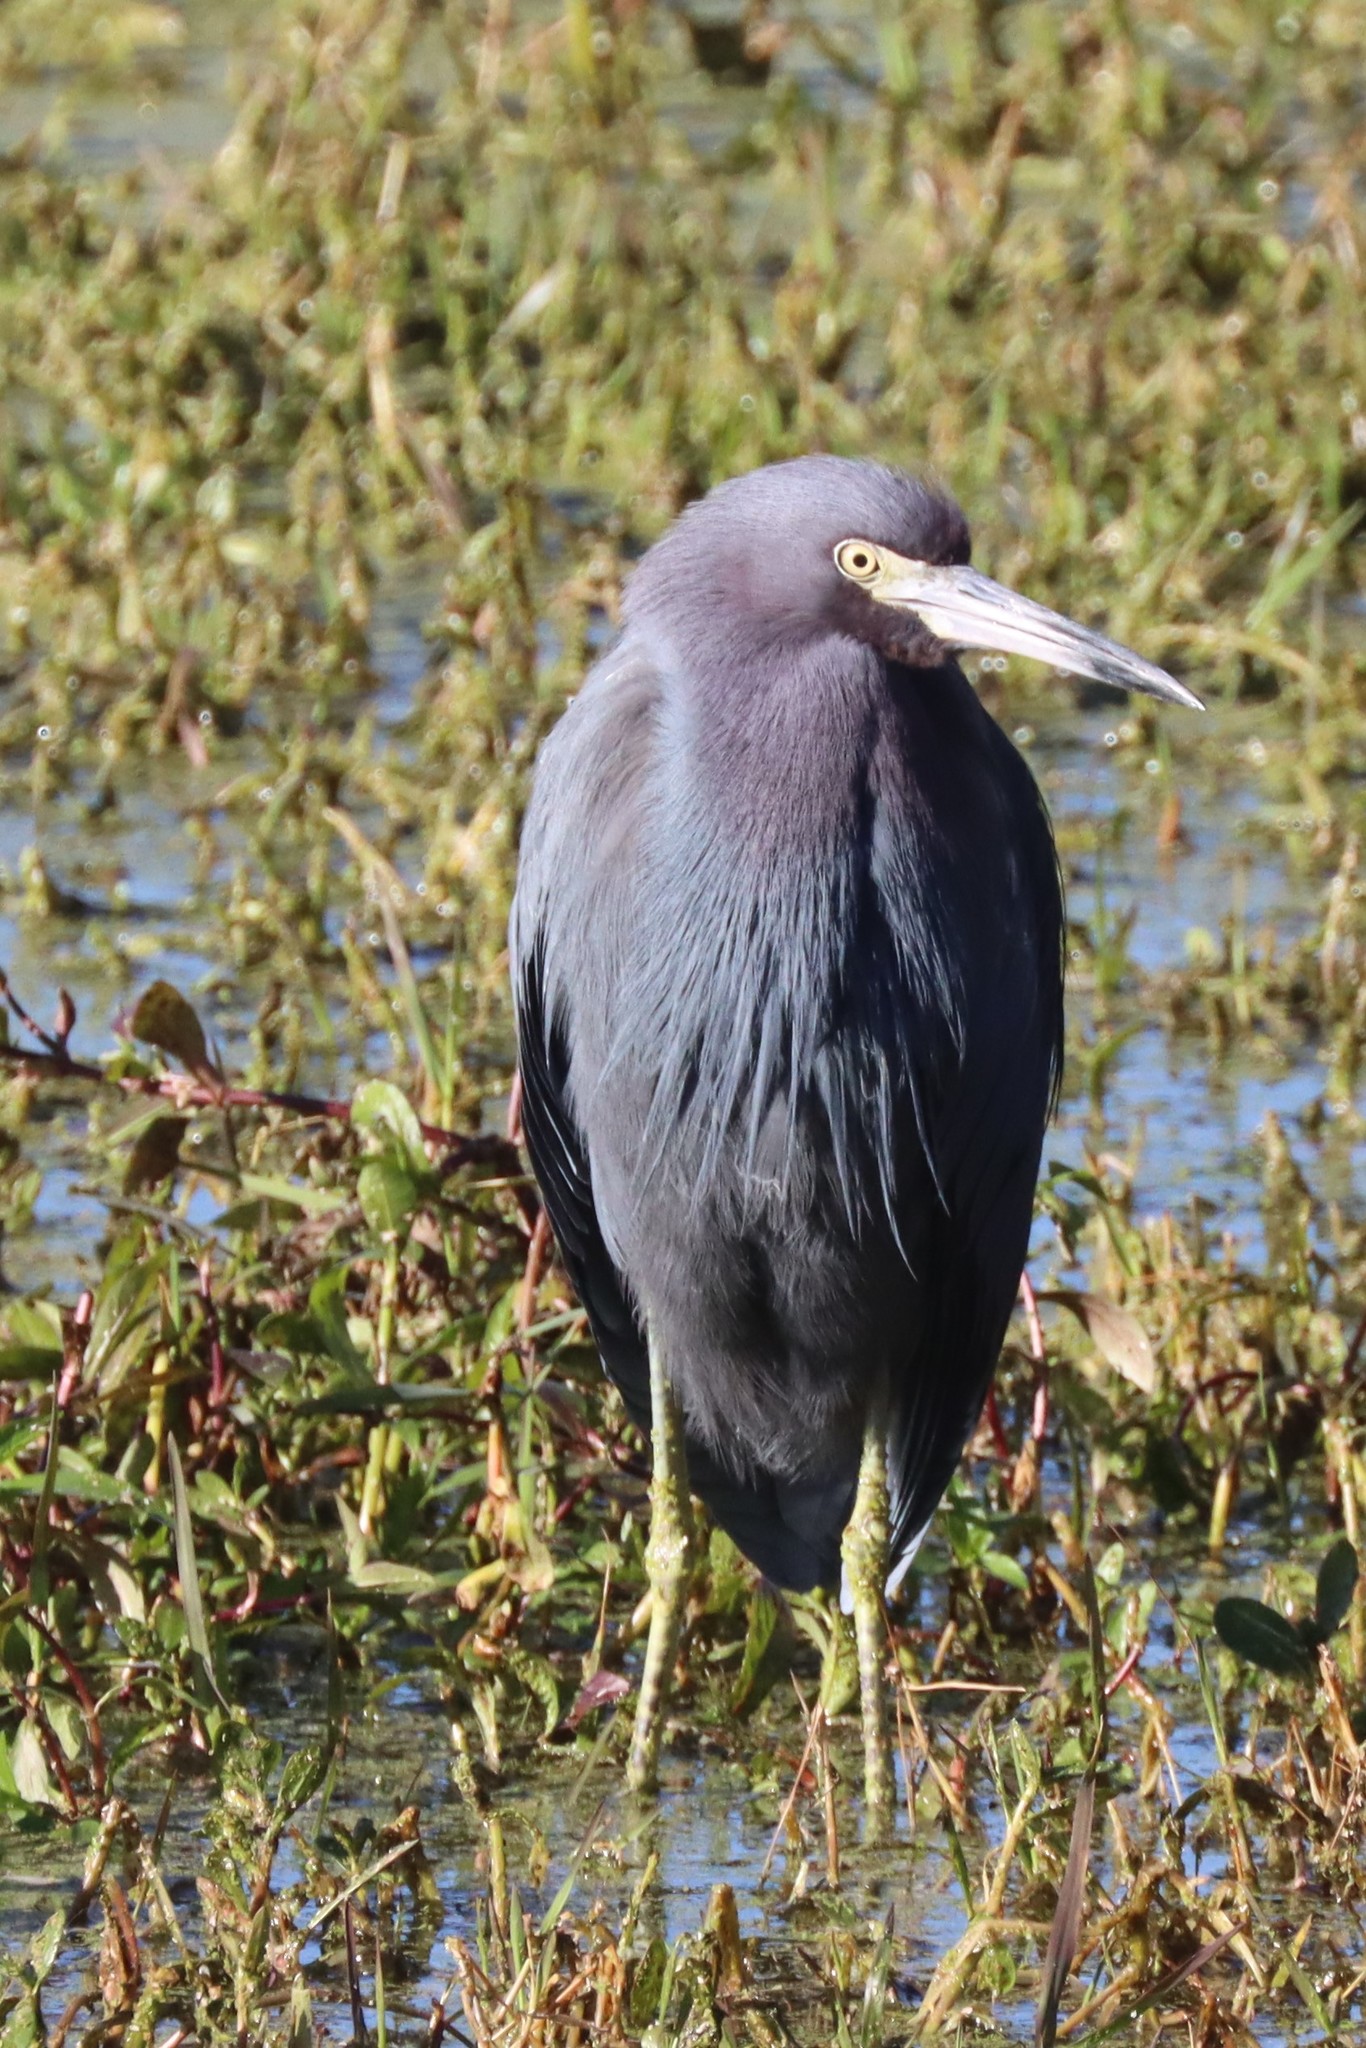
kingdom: Animalia
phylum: Chordata
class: Aves
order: Pelecaniformes
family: Ardeidae
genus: Egretta
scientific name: Egretta caerulea
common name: Little blue heron
